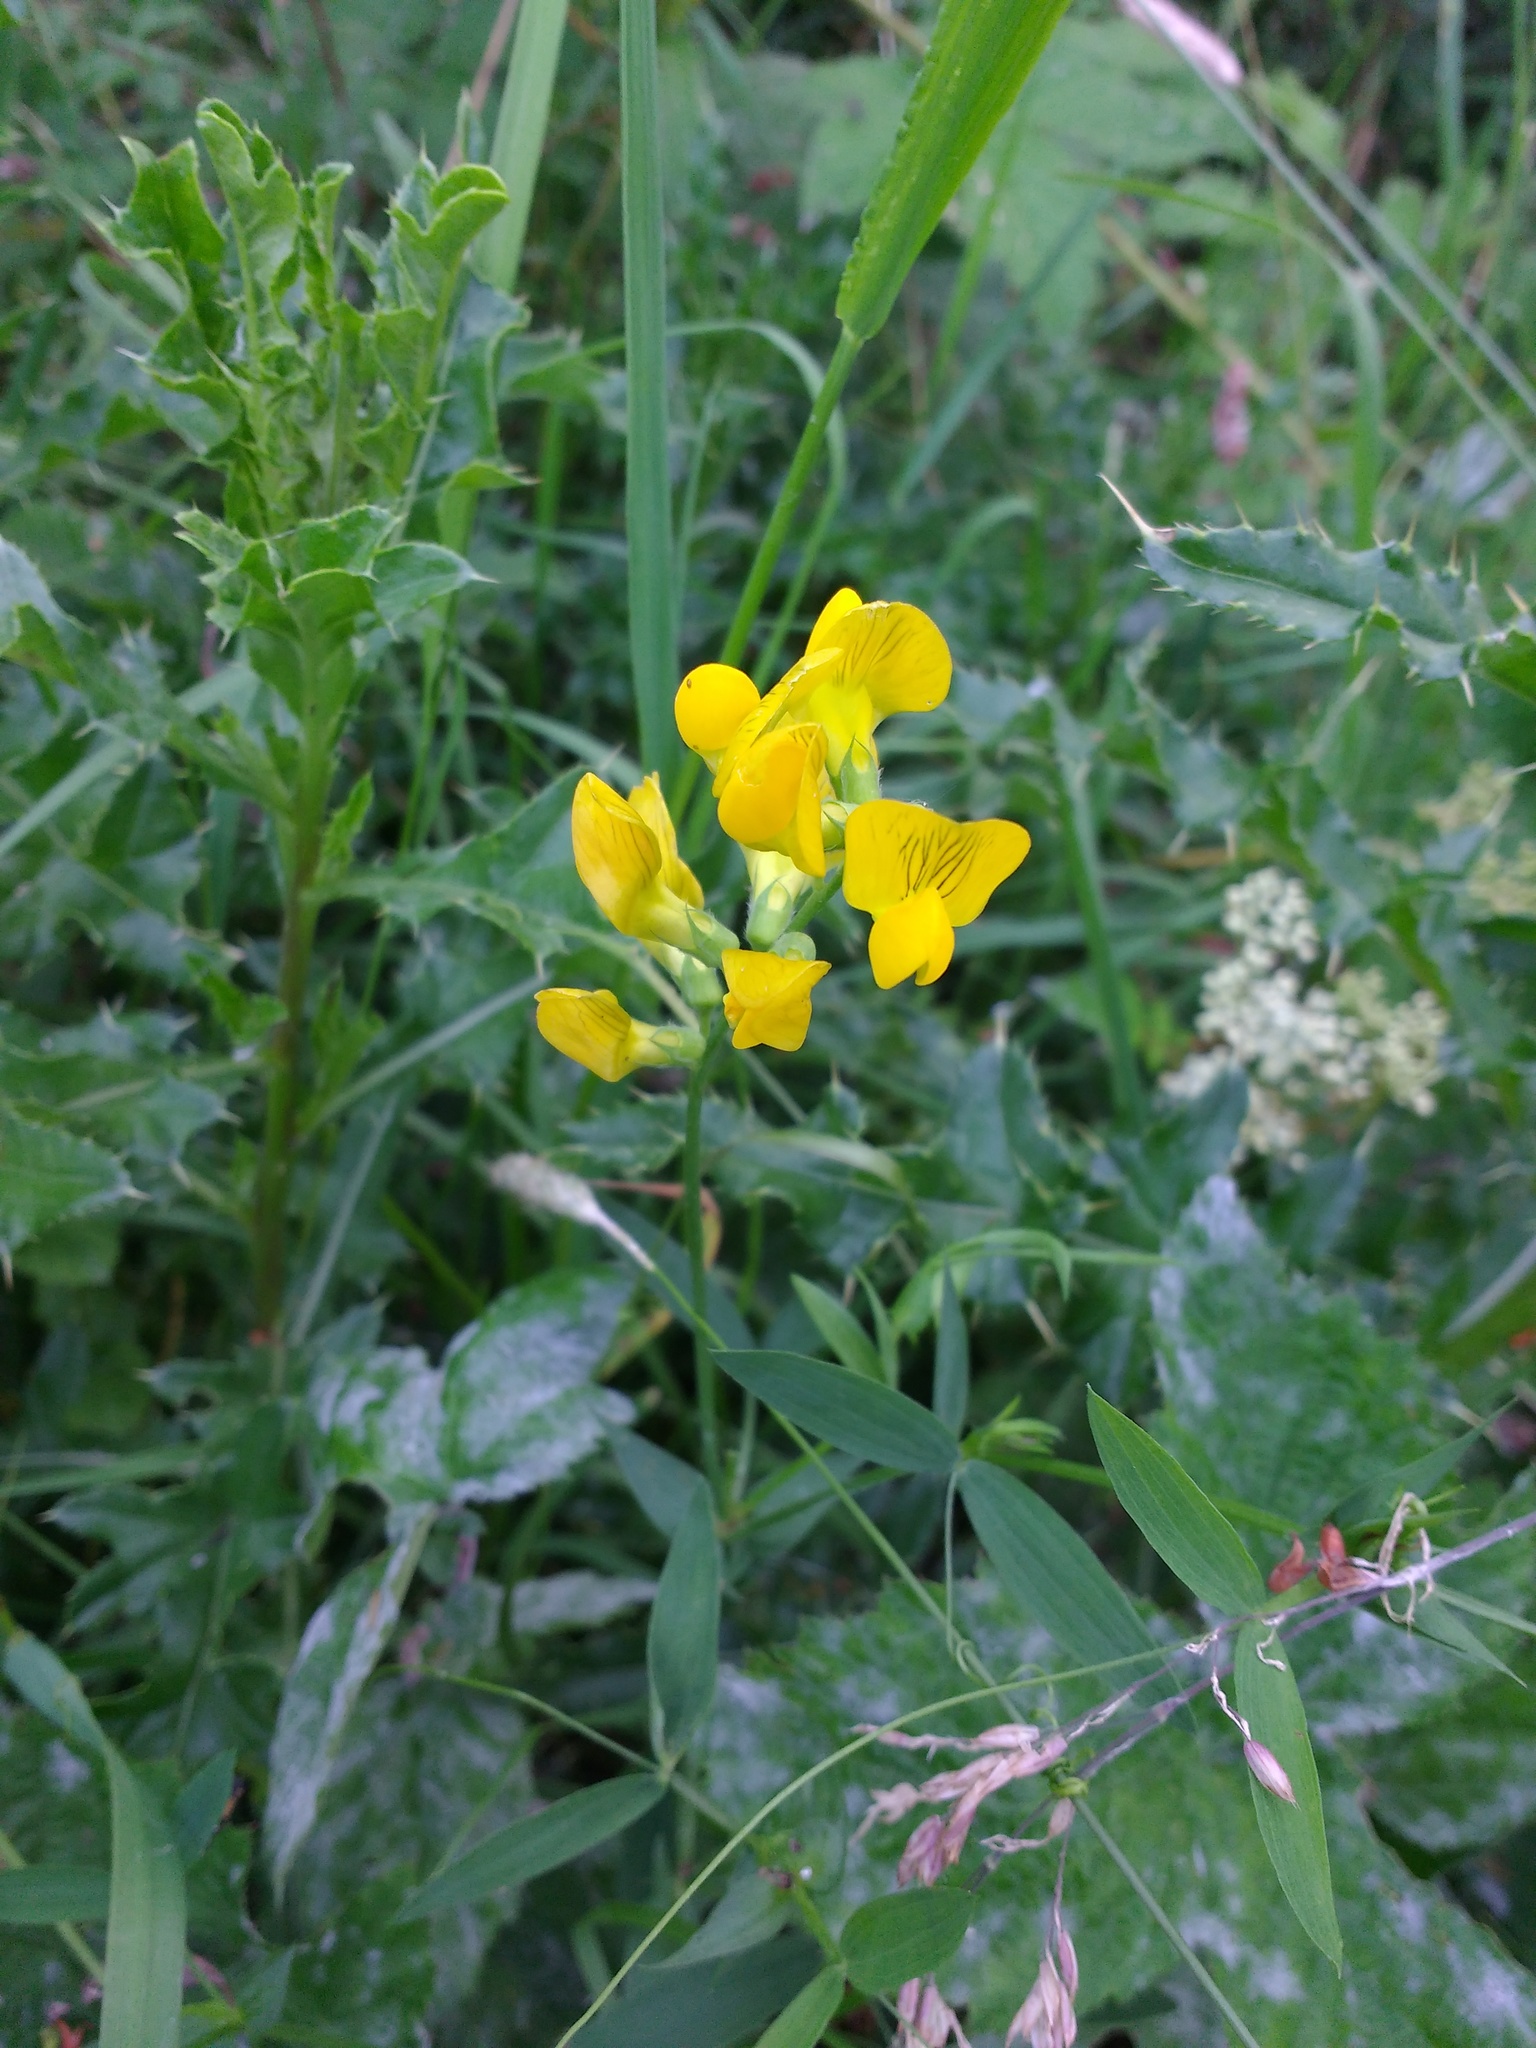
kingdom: Plantae
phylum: Tracheophyta
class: Magnoliopsida
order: Fabales
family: Fabaceae
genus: Lathyrus
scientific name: Lathyrus pratensis
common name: Meadow vetchling
